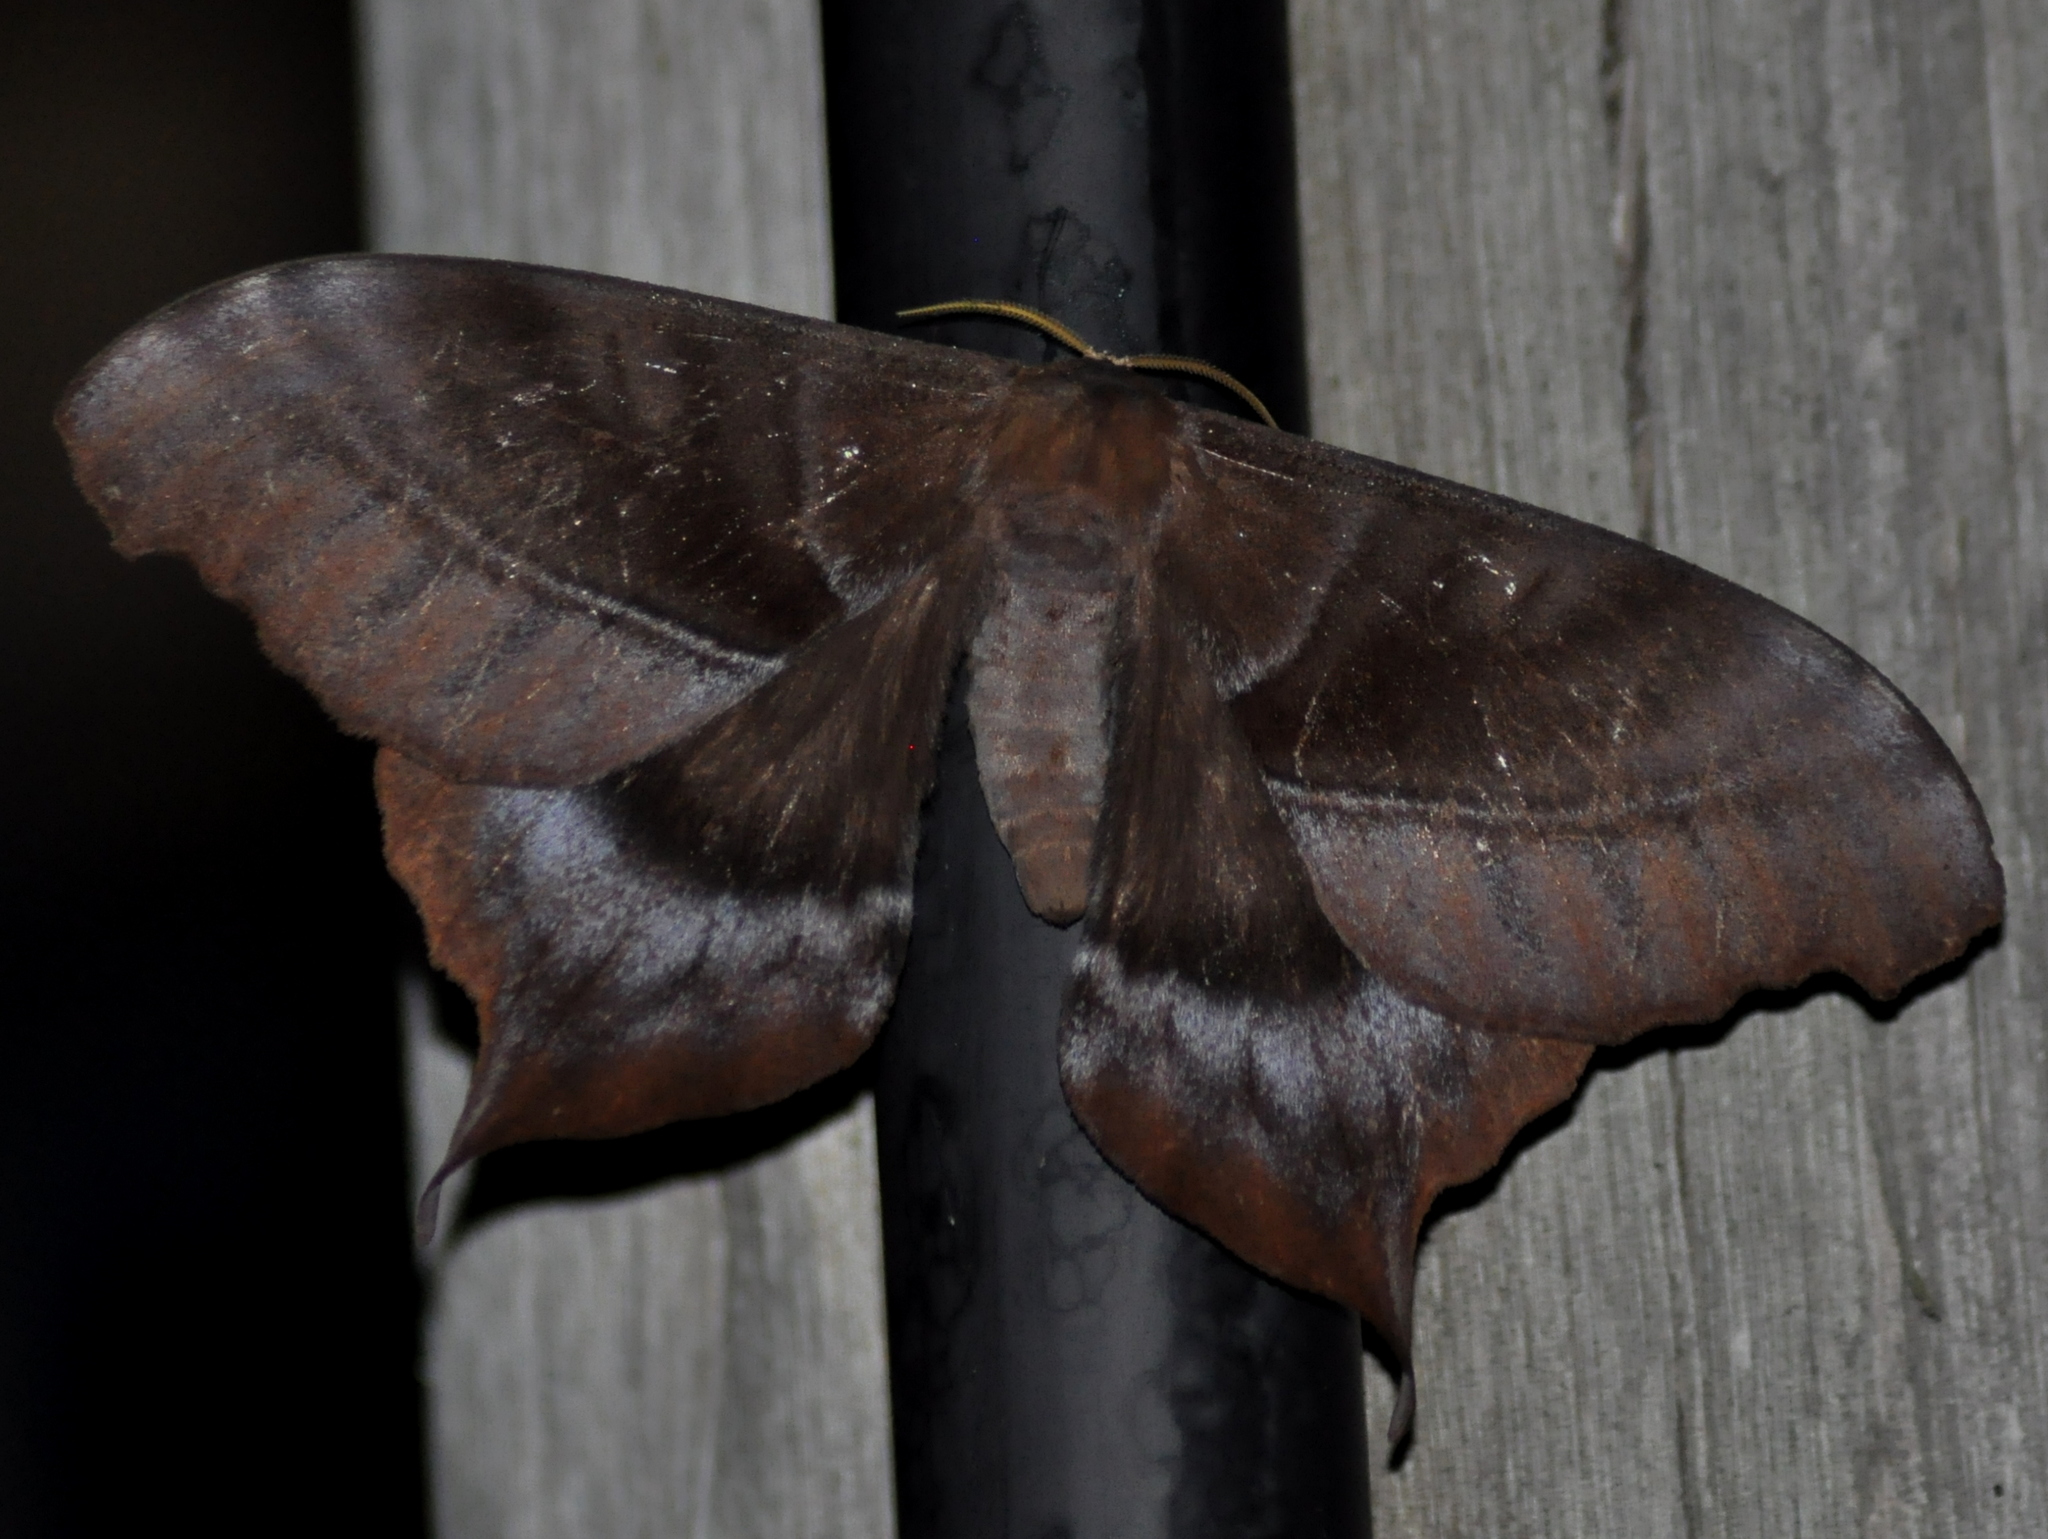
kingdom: Animalia
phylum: Arthropoda
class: Insecta
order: Lepidoptera
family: Saturniidae
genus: Paradaemonia
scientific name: Paradaemonia thelia
